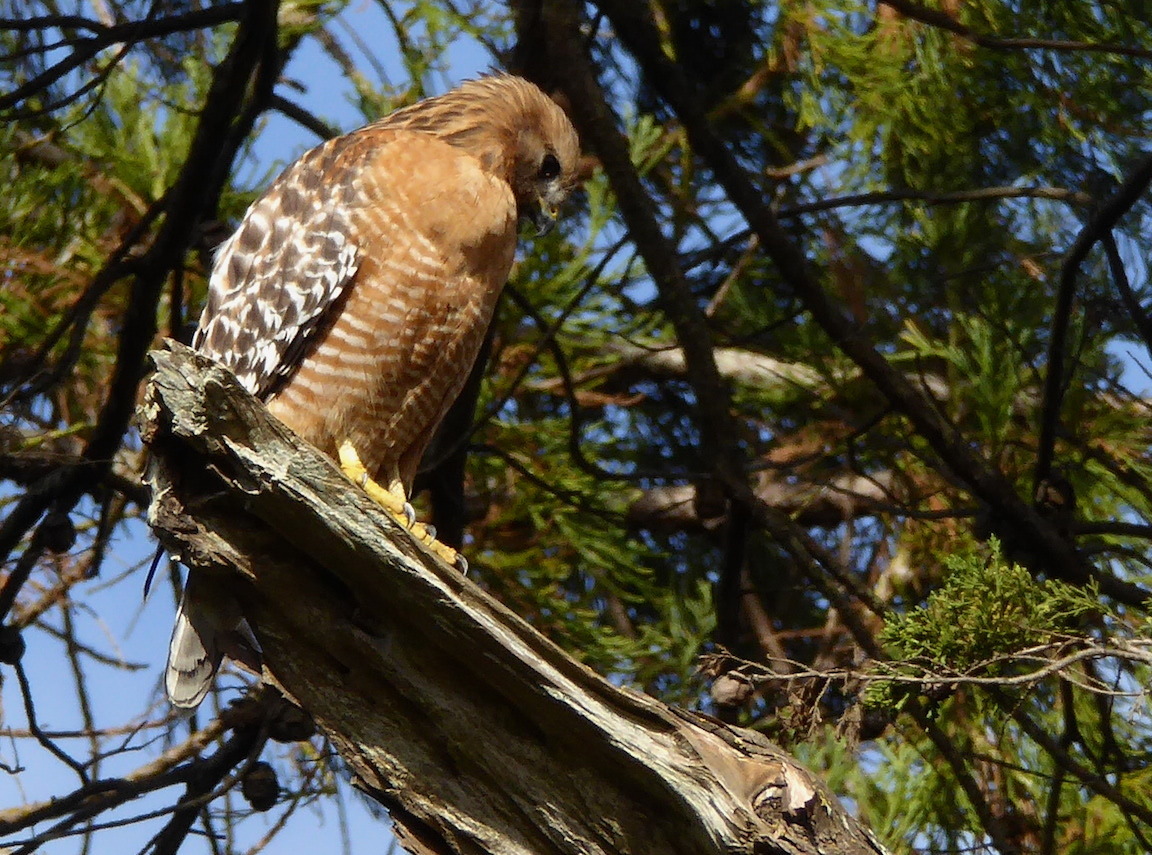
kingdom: Animalia
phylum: Chordata
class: Aves
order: Accipitriformes
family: Accipitridae
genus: Buteo
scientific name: Buteo lineatus
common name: Red-shouldered hawk
